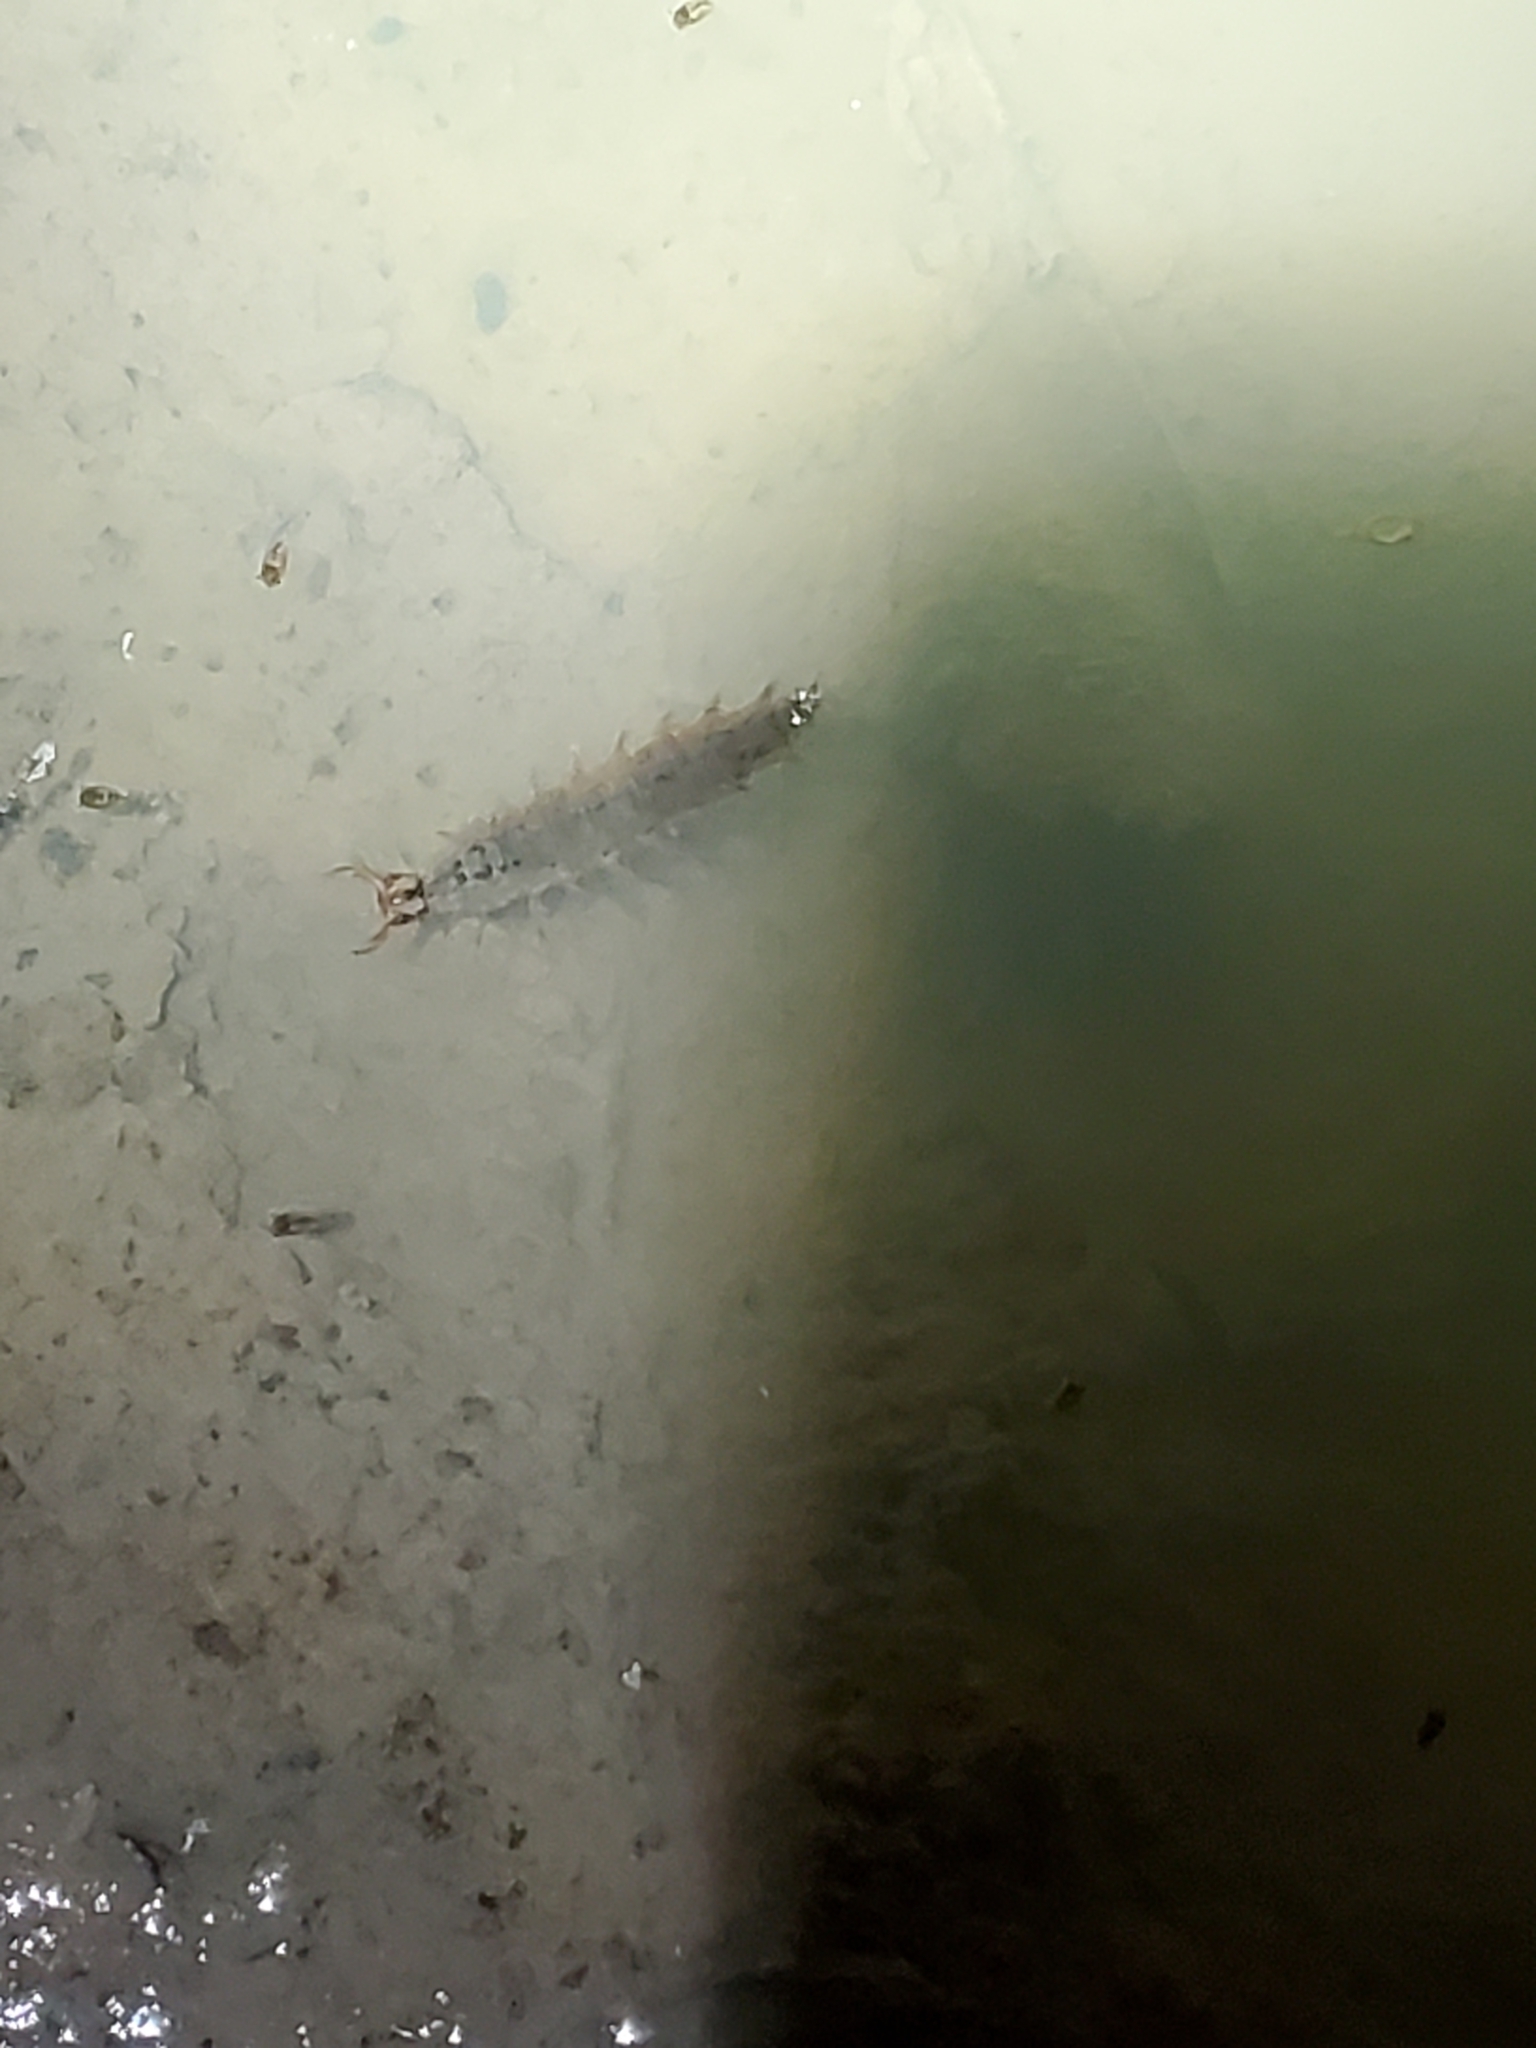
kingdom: Animalia
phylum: Arthropoda
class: Insecta
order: Coleoptera
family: Hydrophilidae
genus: Hydrochara
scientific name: Hydrochara
